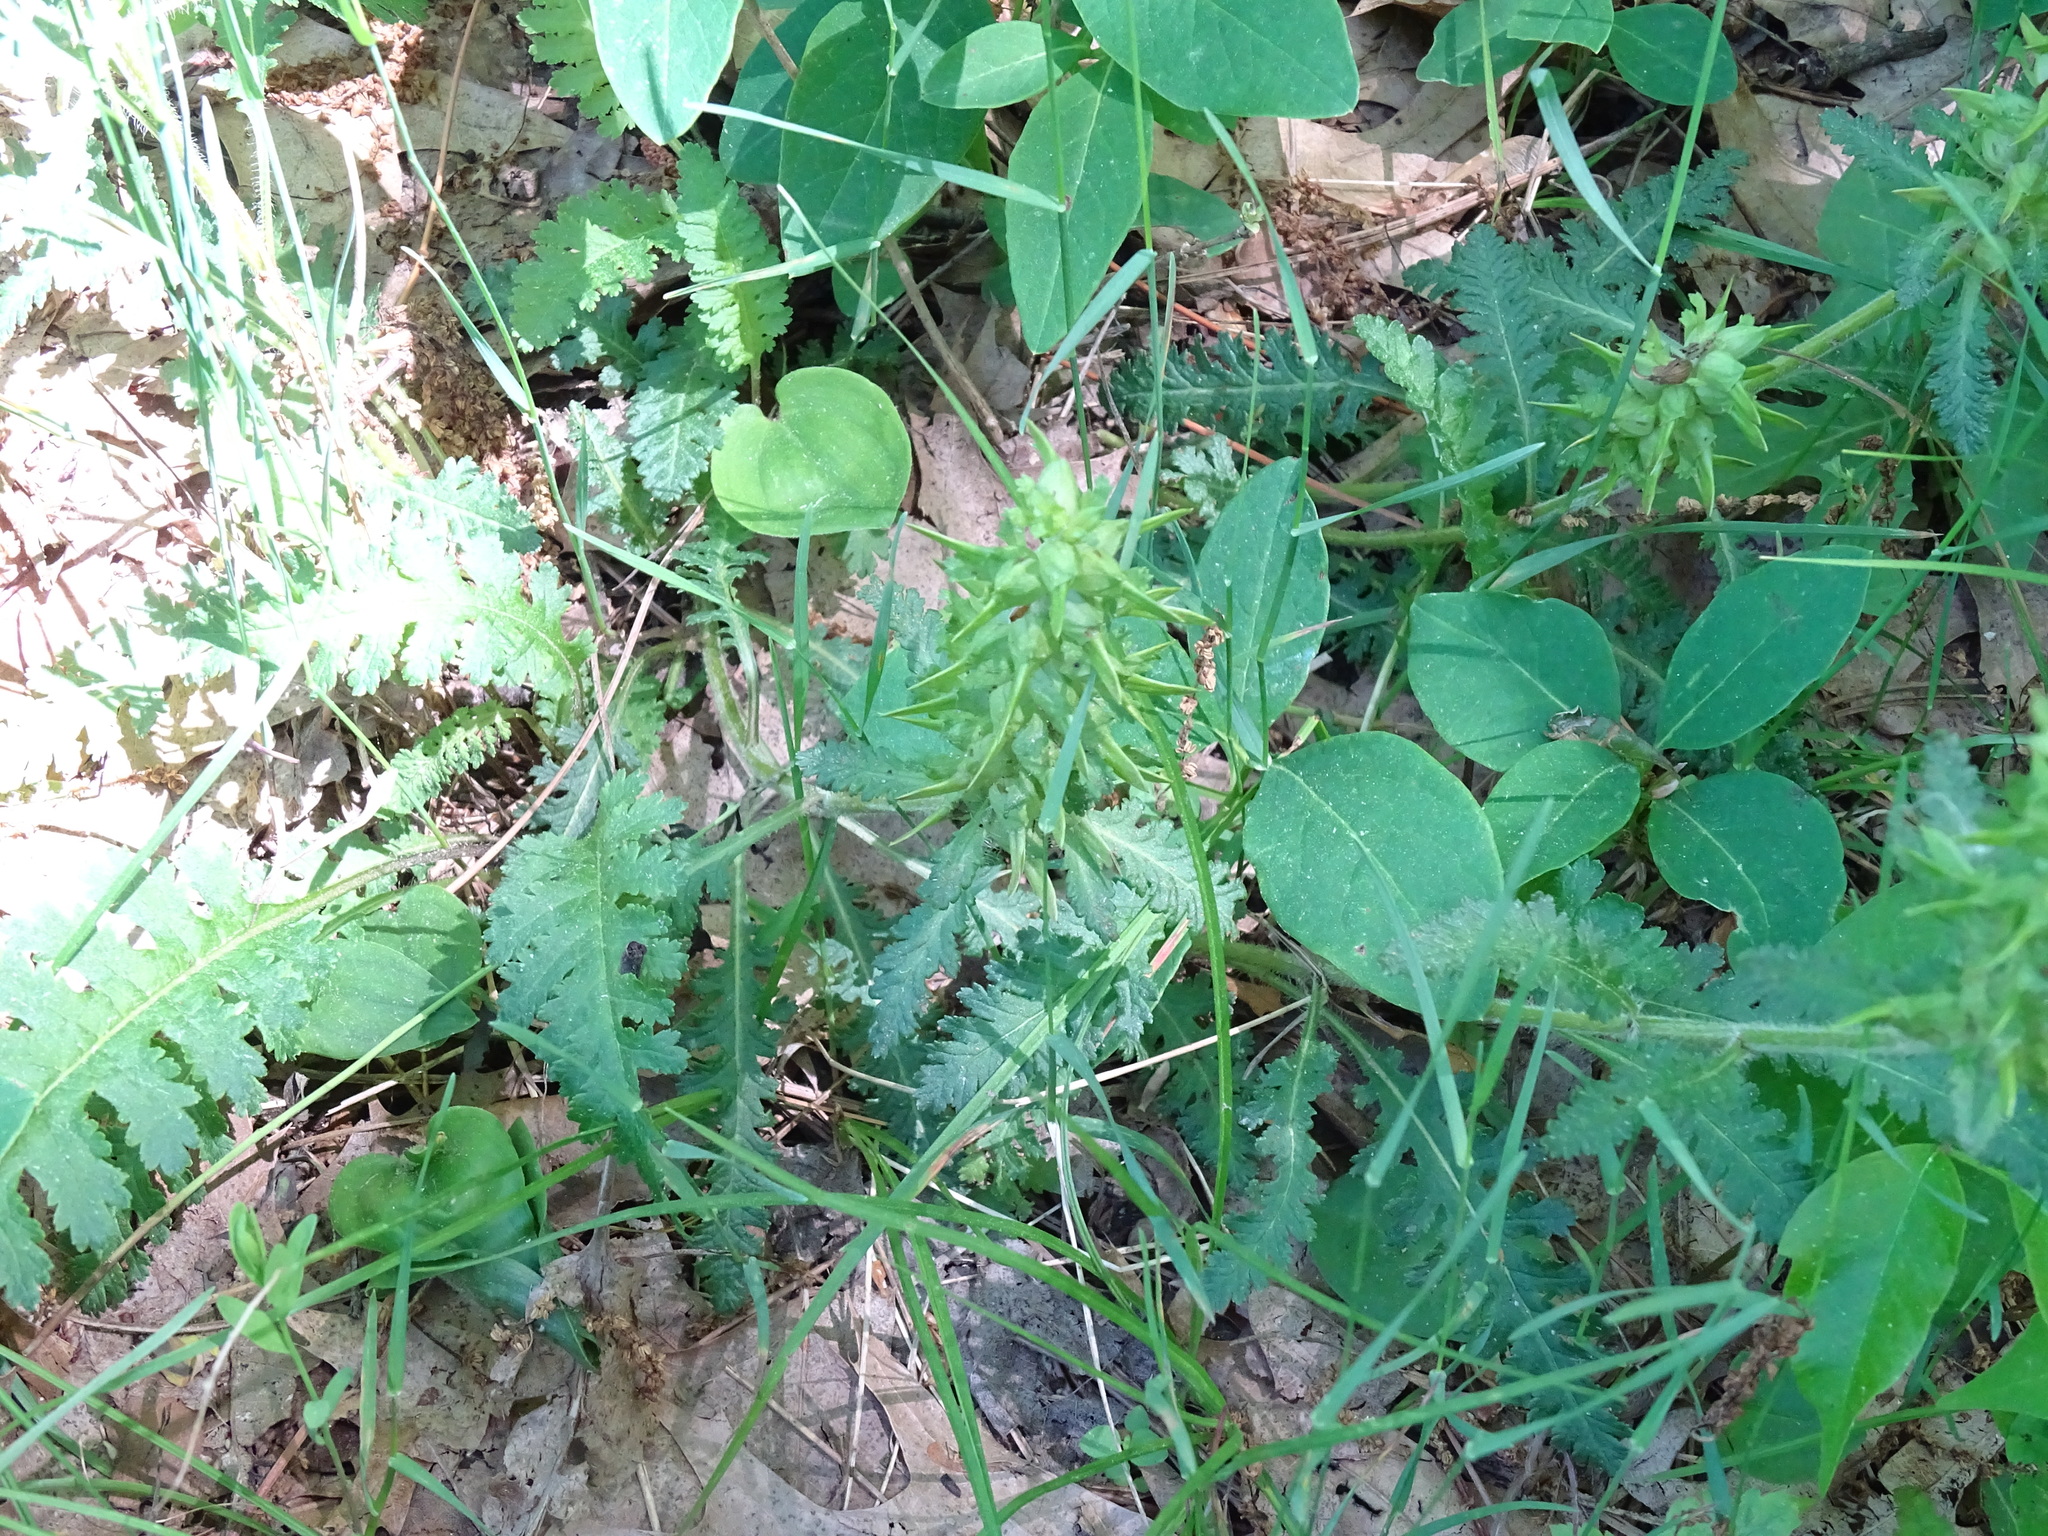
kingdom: Plantae
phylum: Tracheophyta
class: Magnoliopsida
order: Lamiales
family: Orobanchaceae
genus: Pedicularis
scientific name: Pedicularis canadensis
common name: Early lousewort
